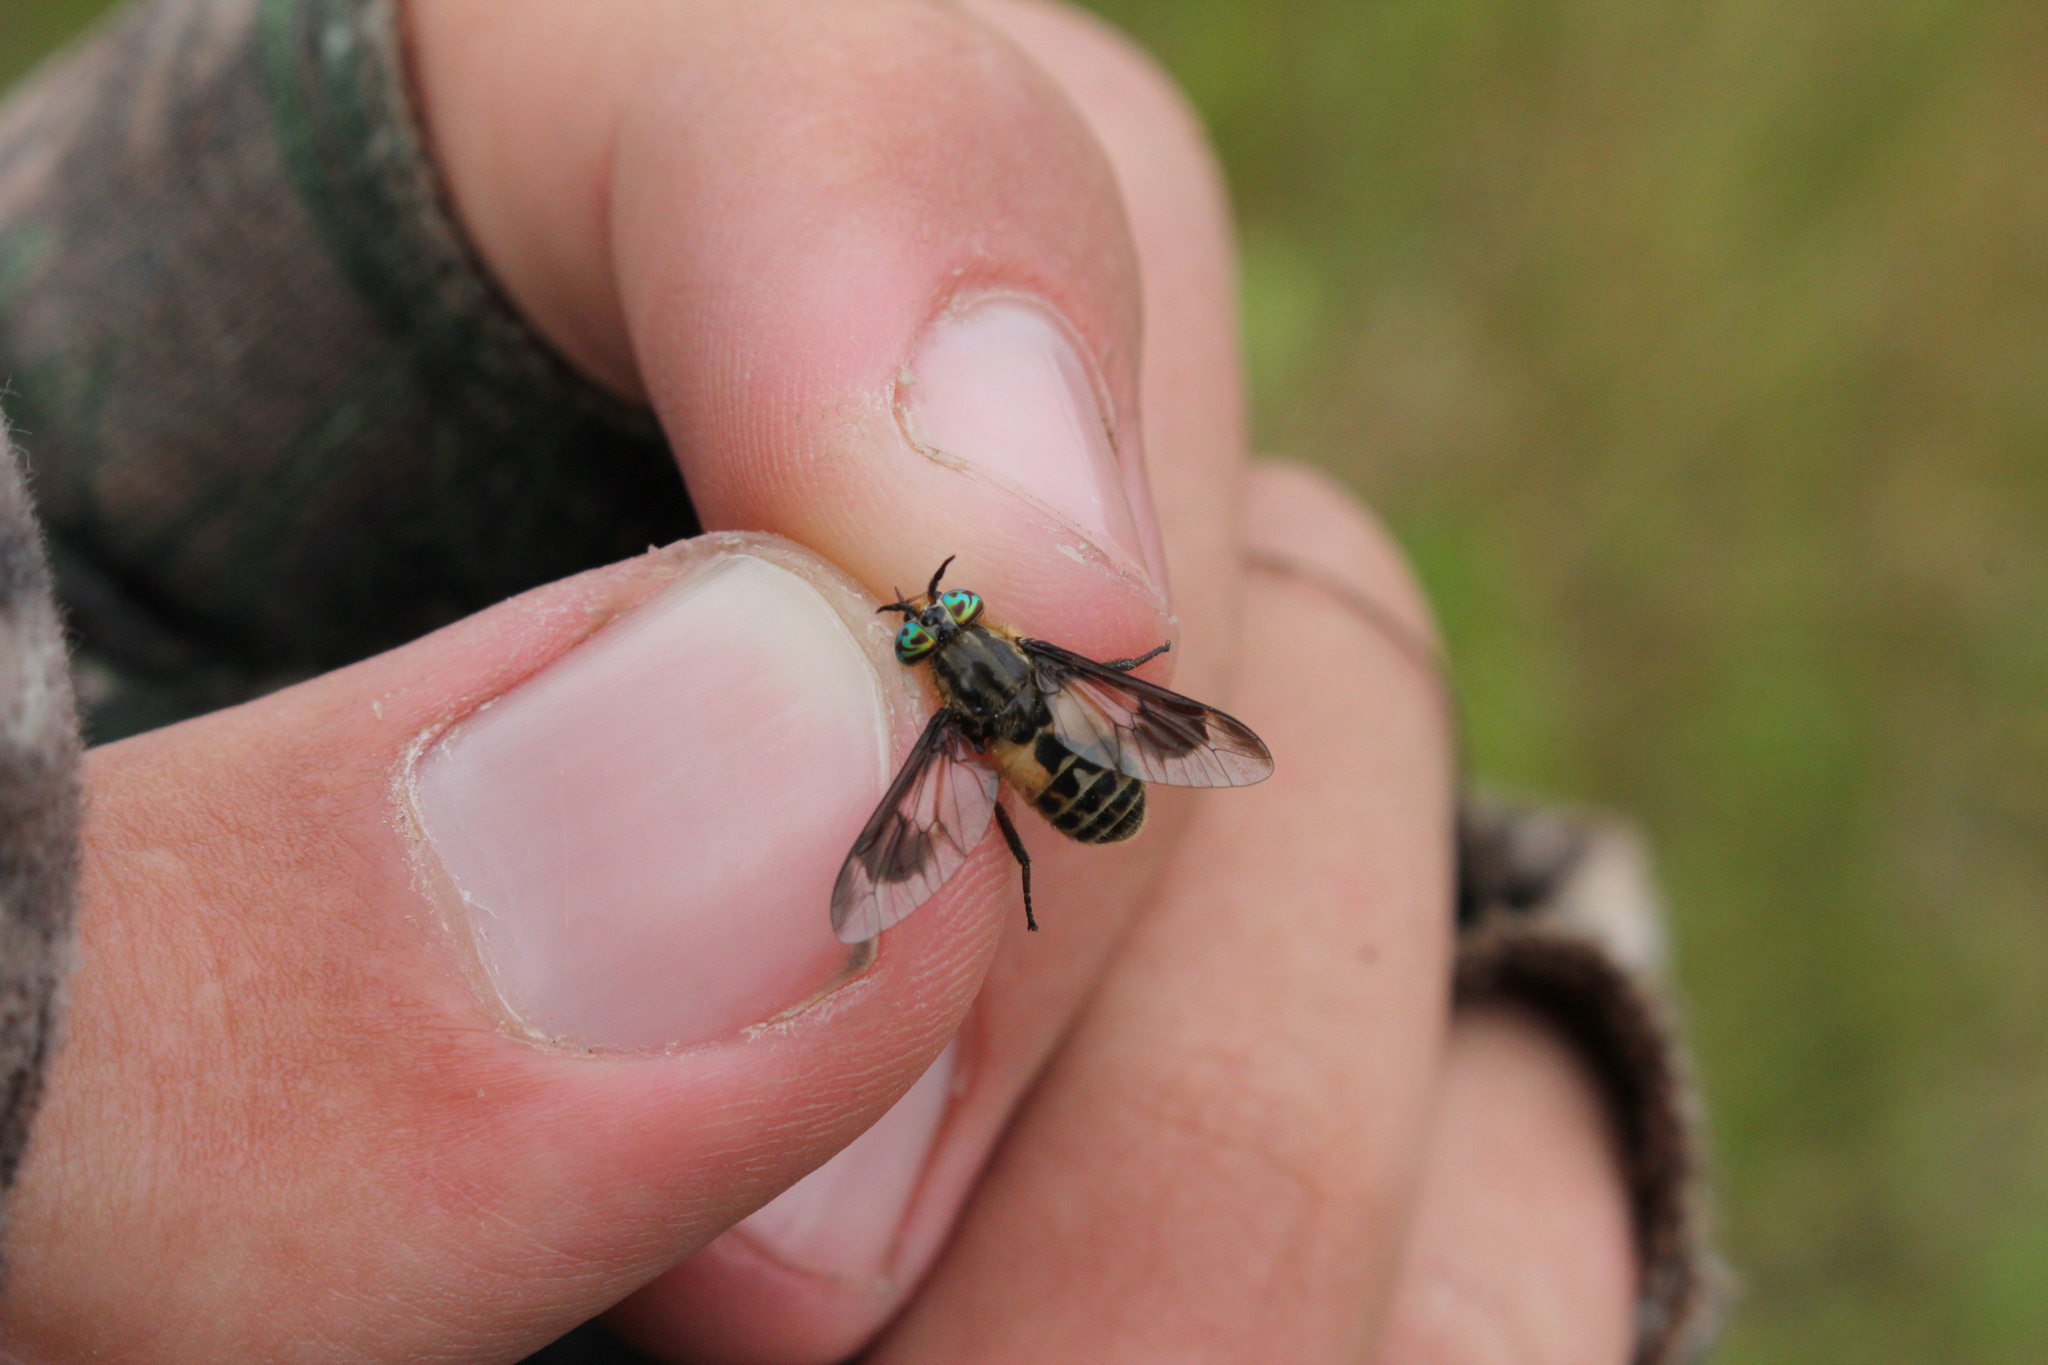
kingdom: Animalia
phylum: Arthropoda
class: Insecta
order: Diptera
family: Tabanidae
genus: Chrysops
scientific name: Chrysops furcatus
